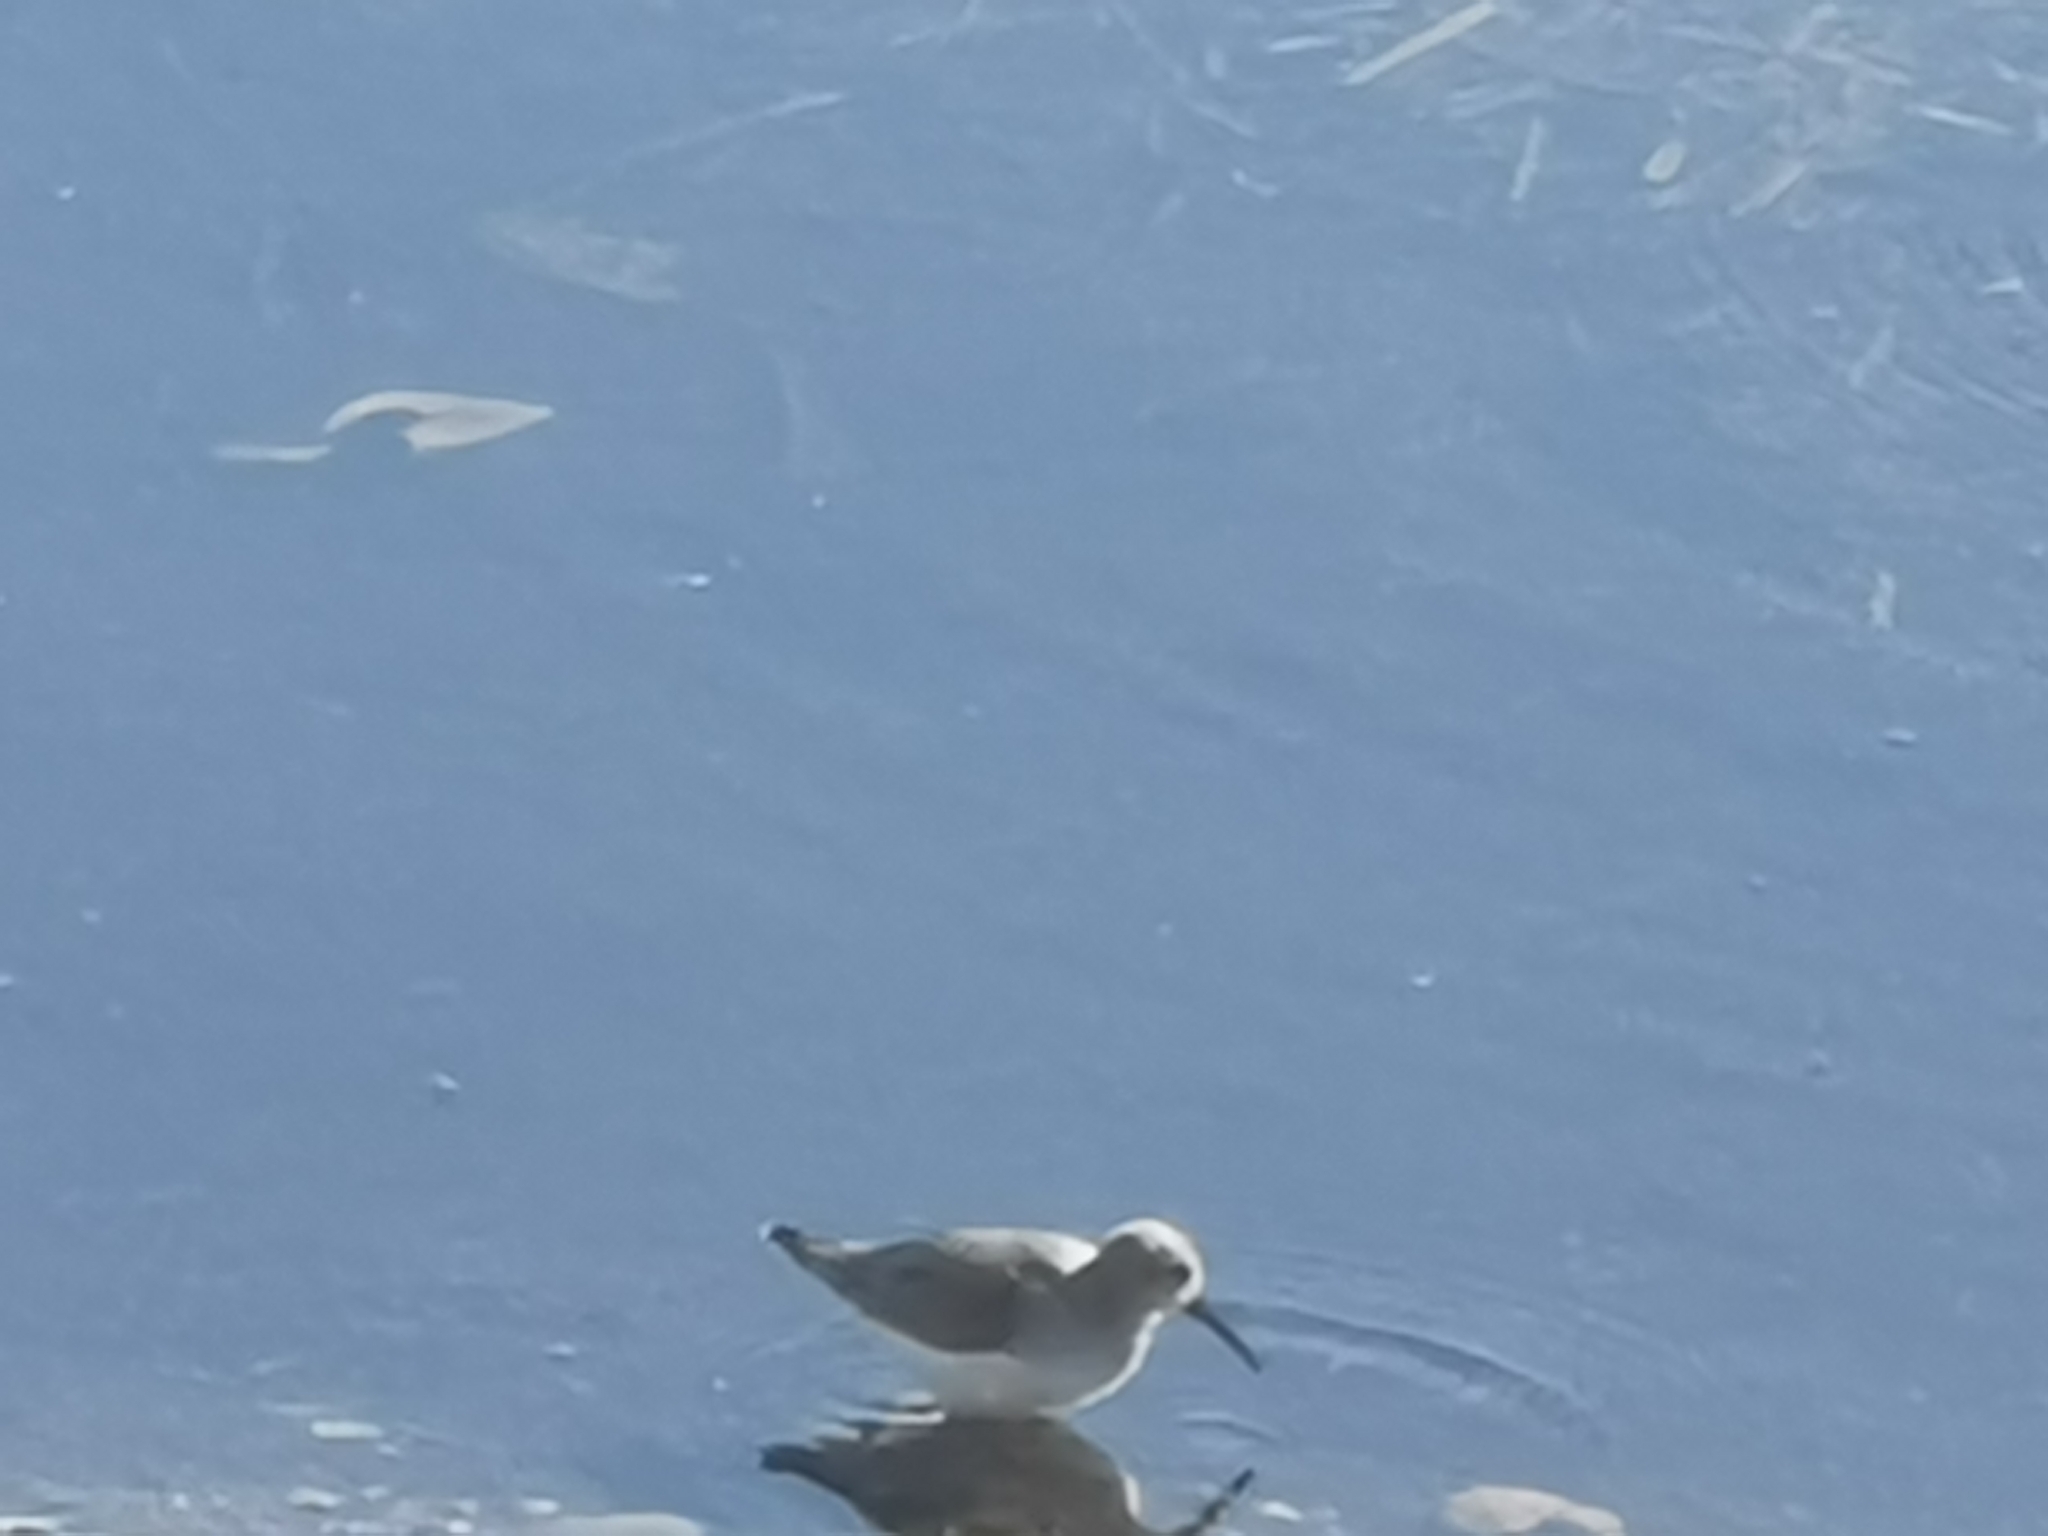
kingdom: Animalia
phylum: Chordata
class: Aves
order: Charadriiformes
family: Scolopacidae
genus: Calidris
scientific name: Calidris alpina
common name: Dunlin
